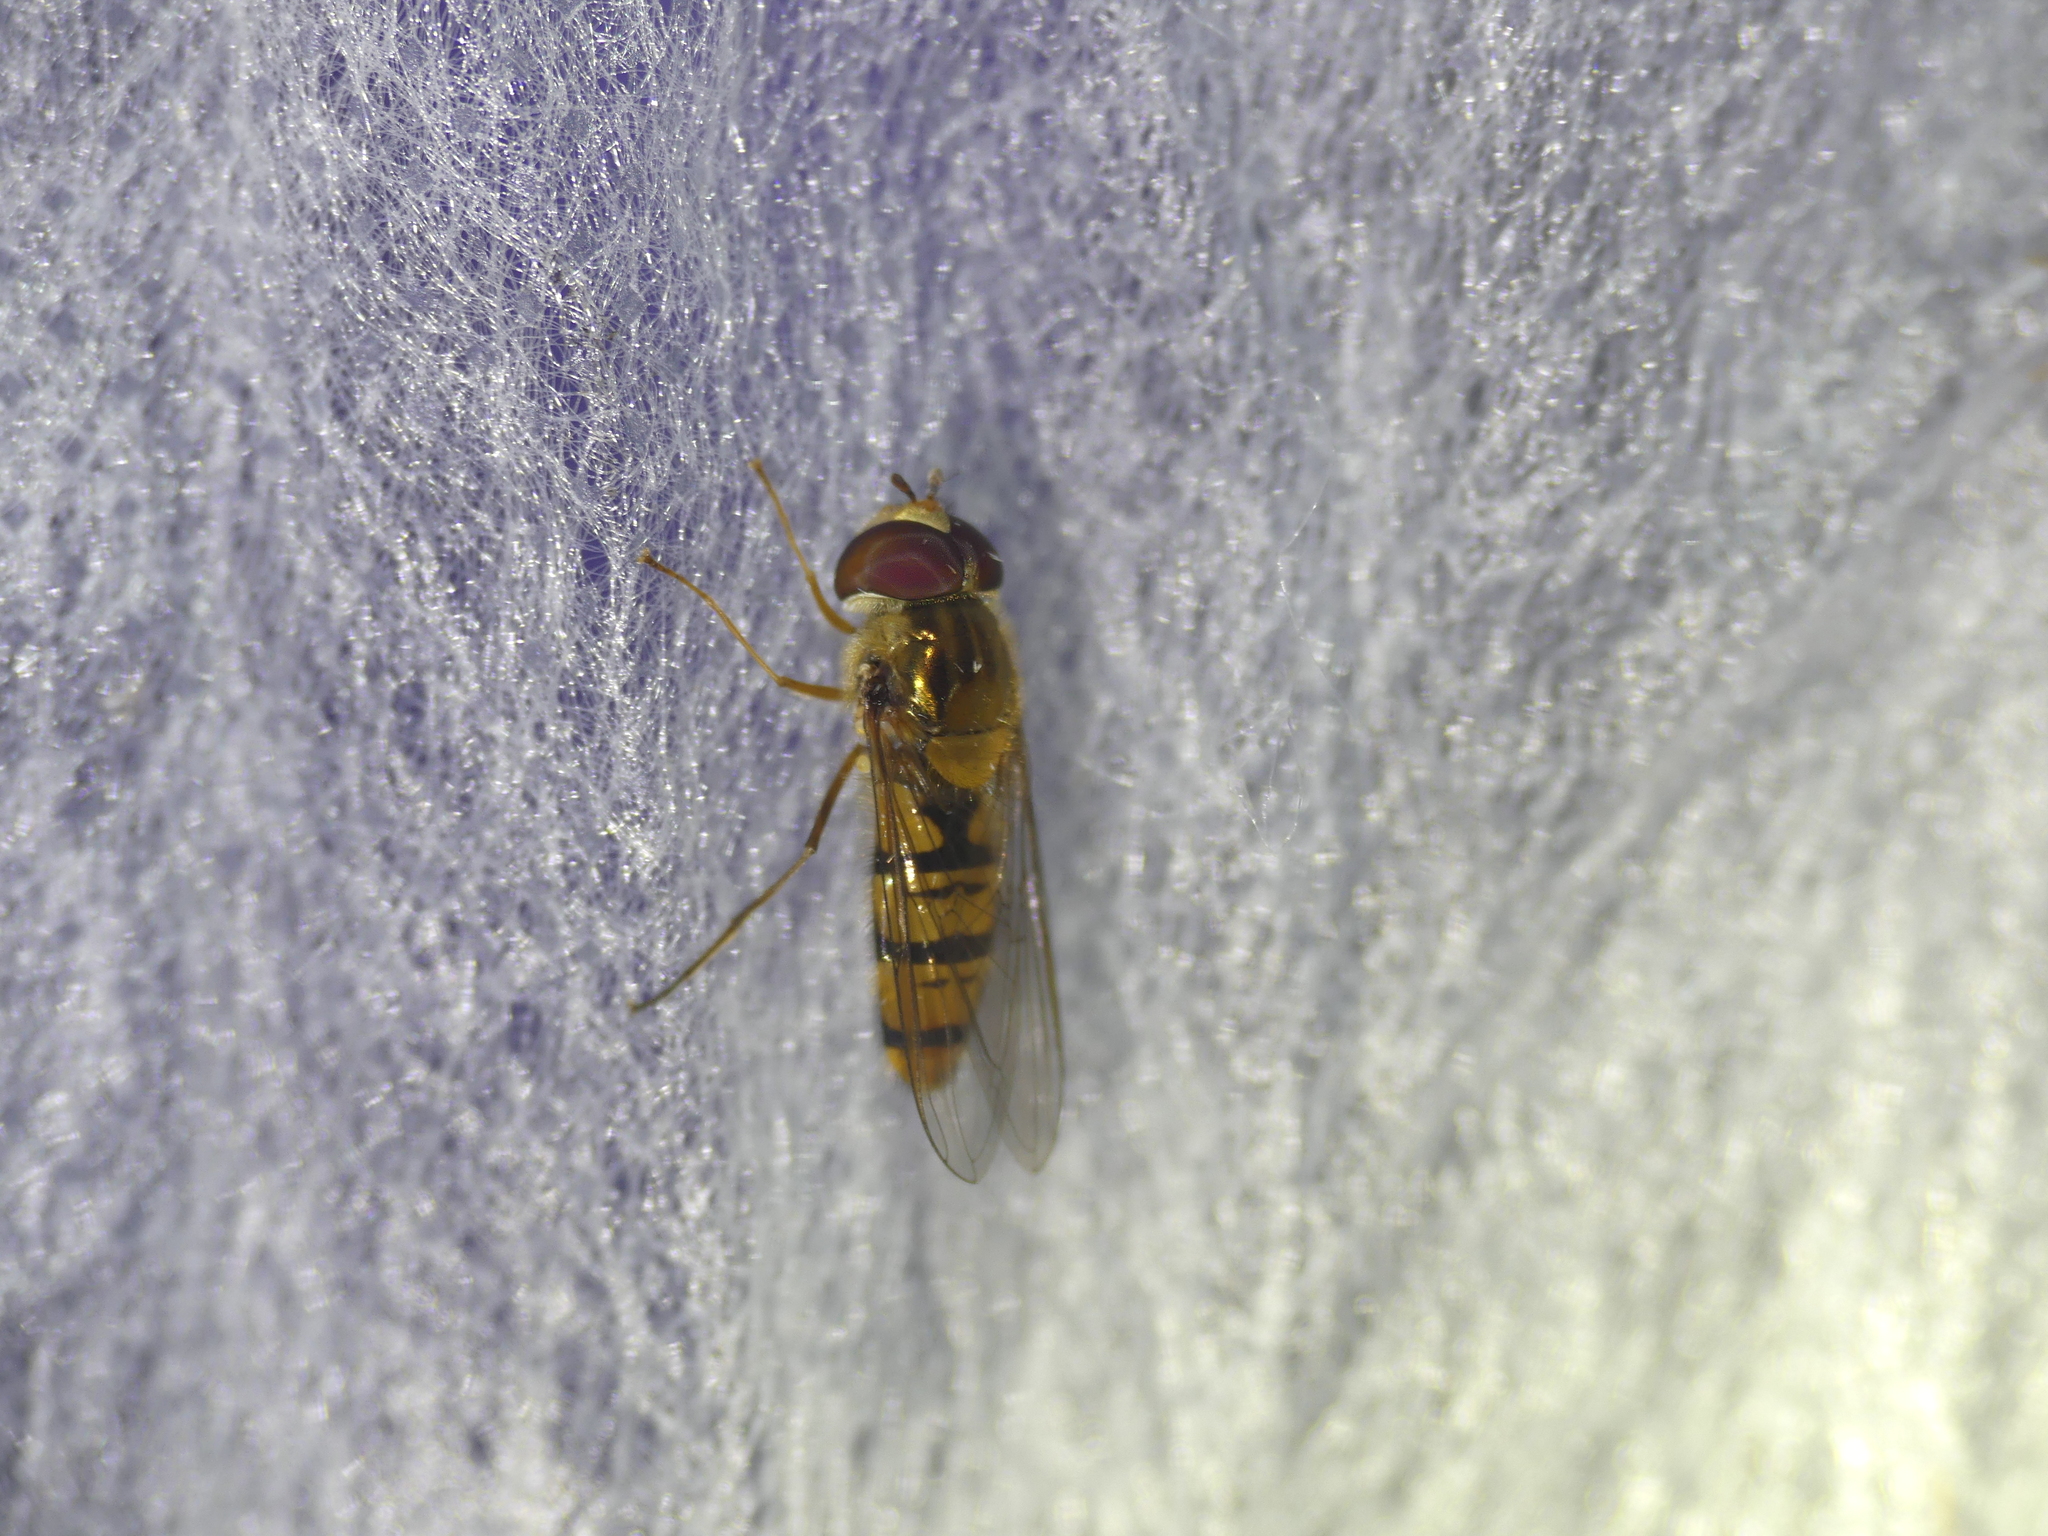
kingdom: Animalia
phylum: Arthropoda
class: Insecta
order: Diptera
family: Syrphidae
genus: Episyrphus
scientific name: Episyrphus balteatus
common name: Marmalade hoverfly
